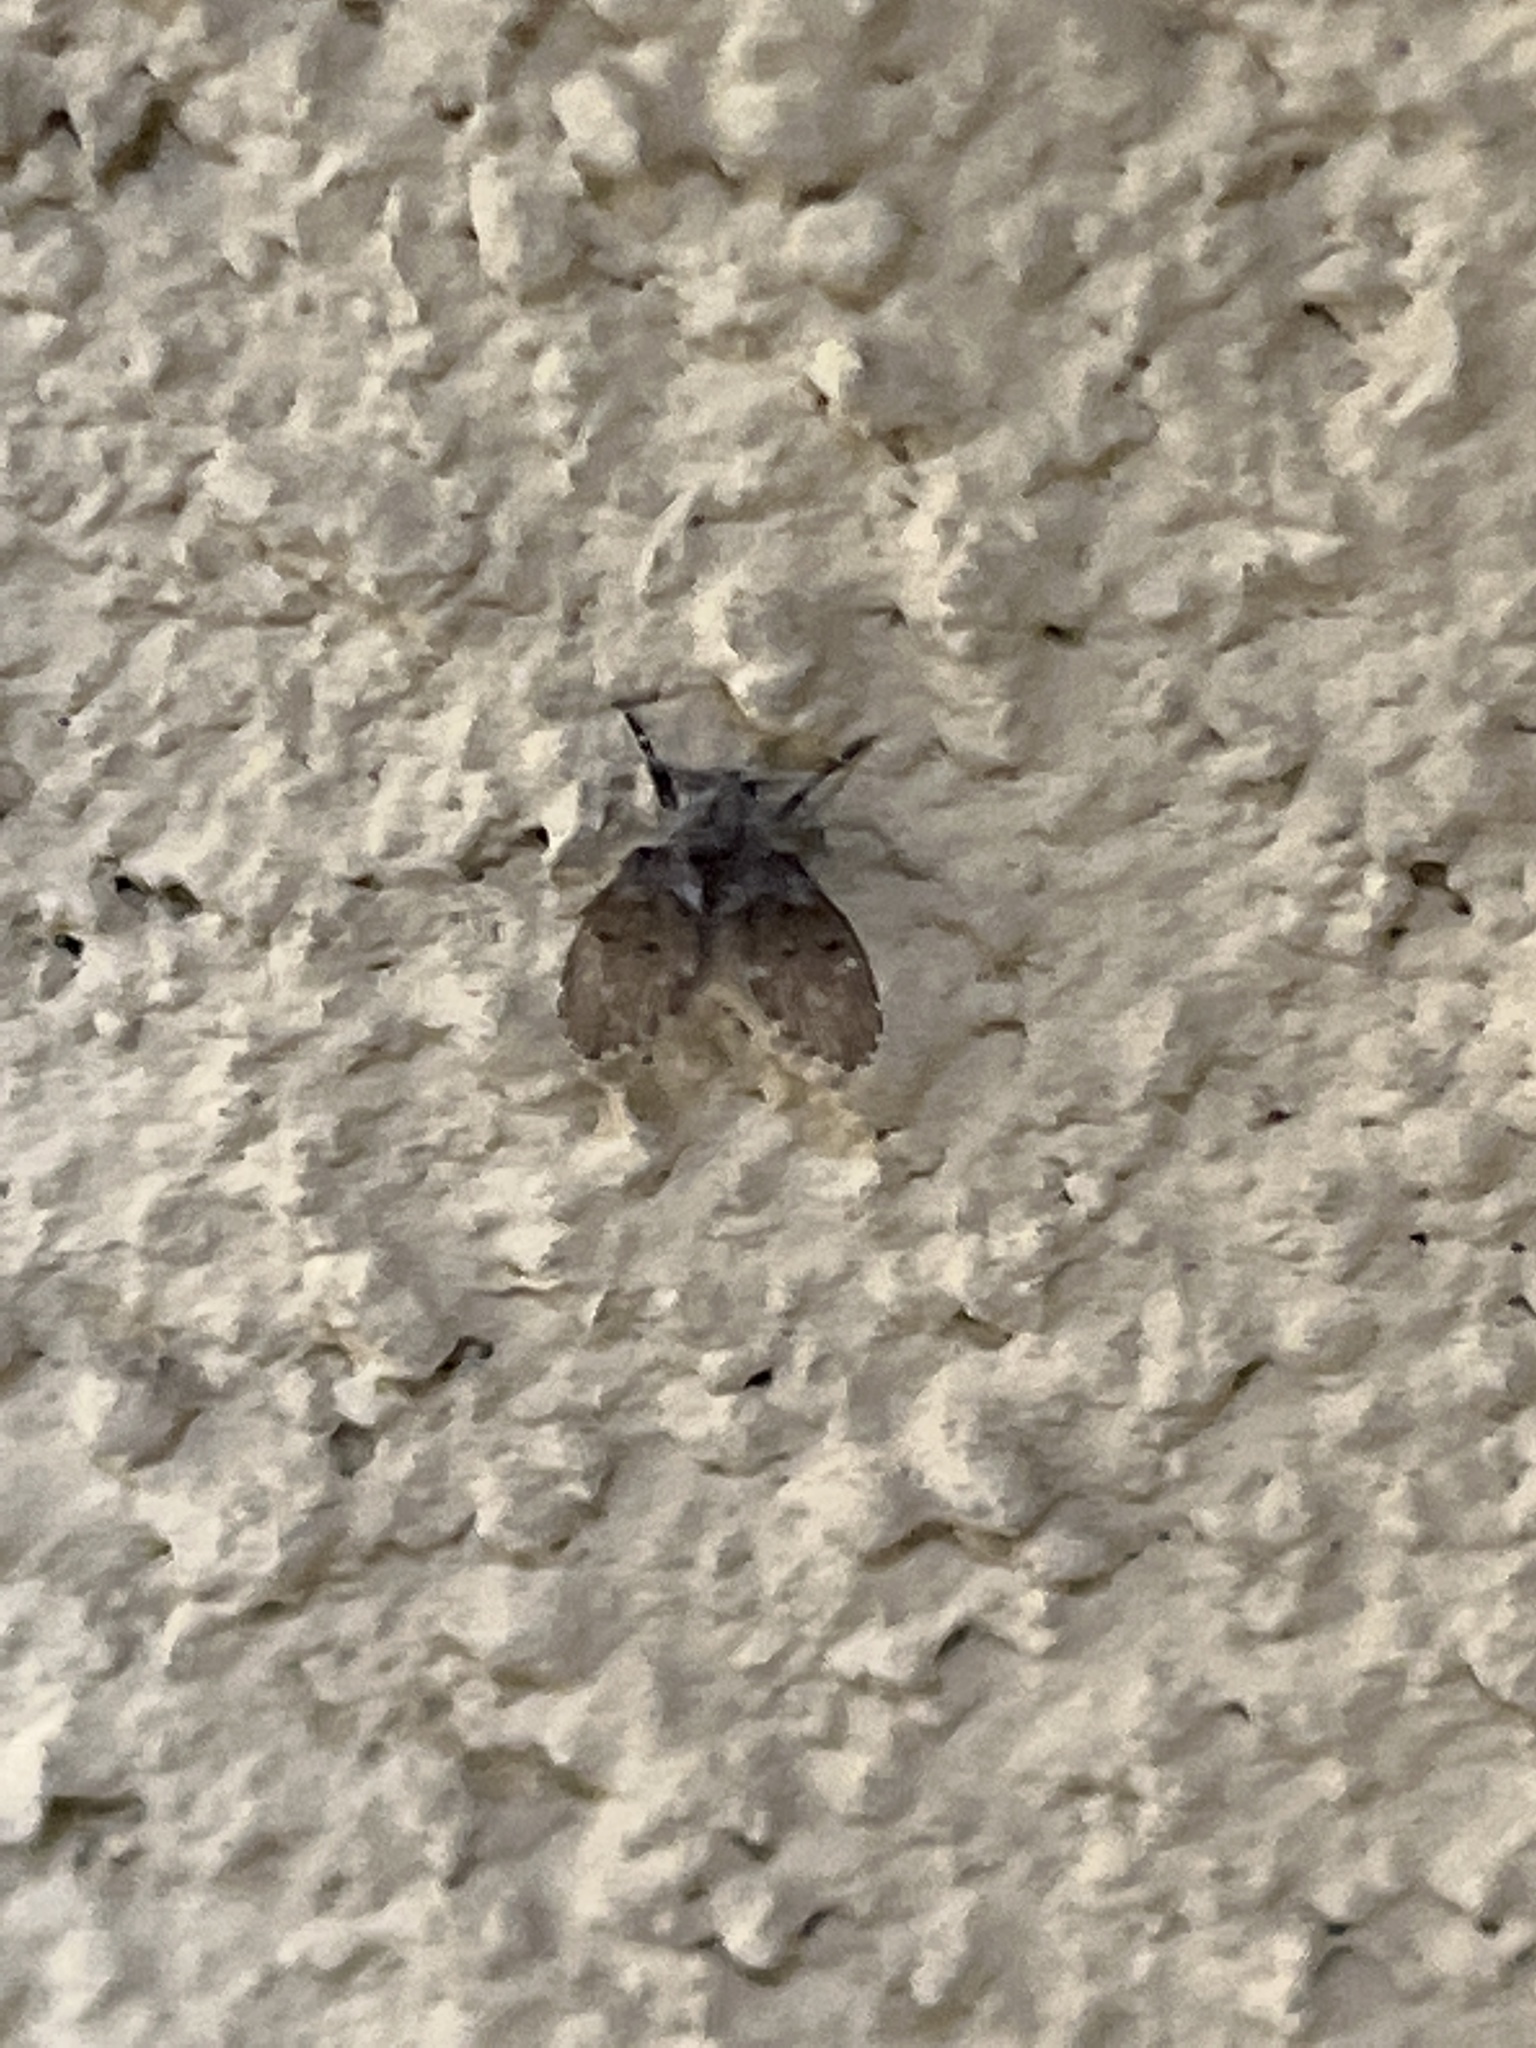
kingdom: Animalia
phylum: Arthropoda
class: Insecta
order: Diptera
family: Psychodidae
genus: Clogmia
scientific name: Clogmia albipunctatus
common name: White-spotted moth fly
